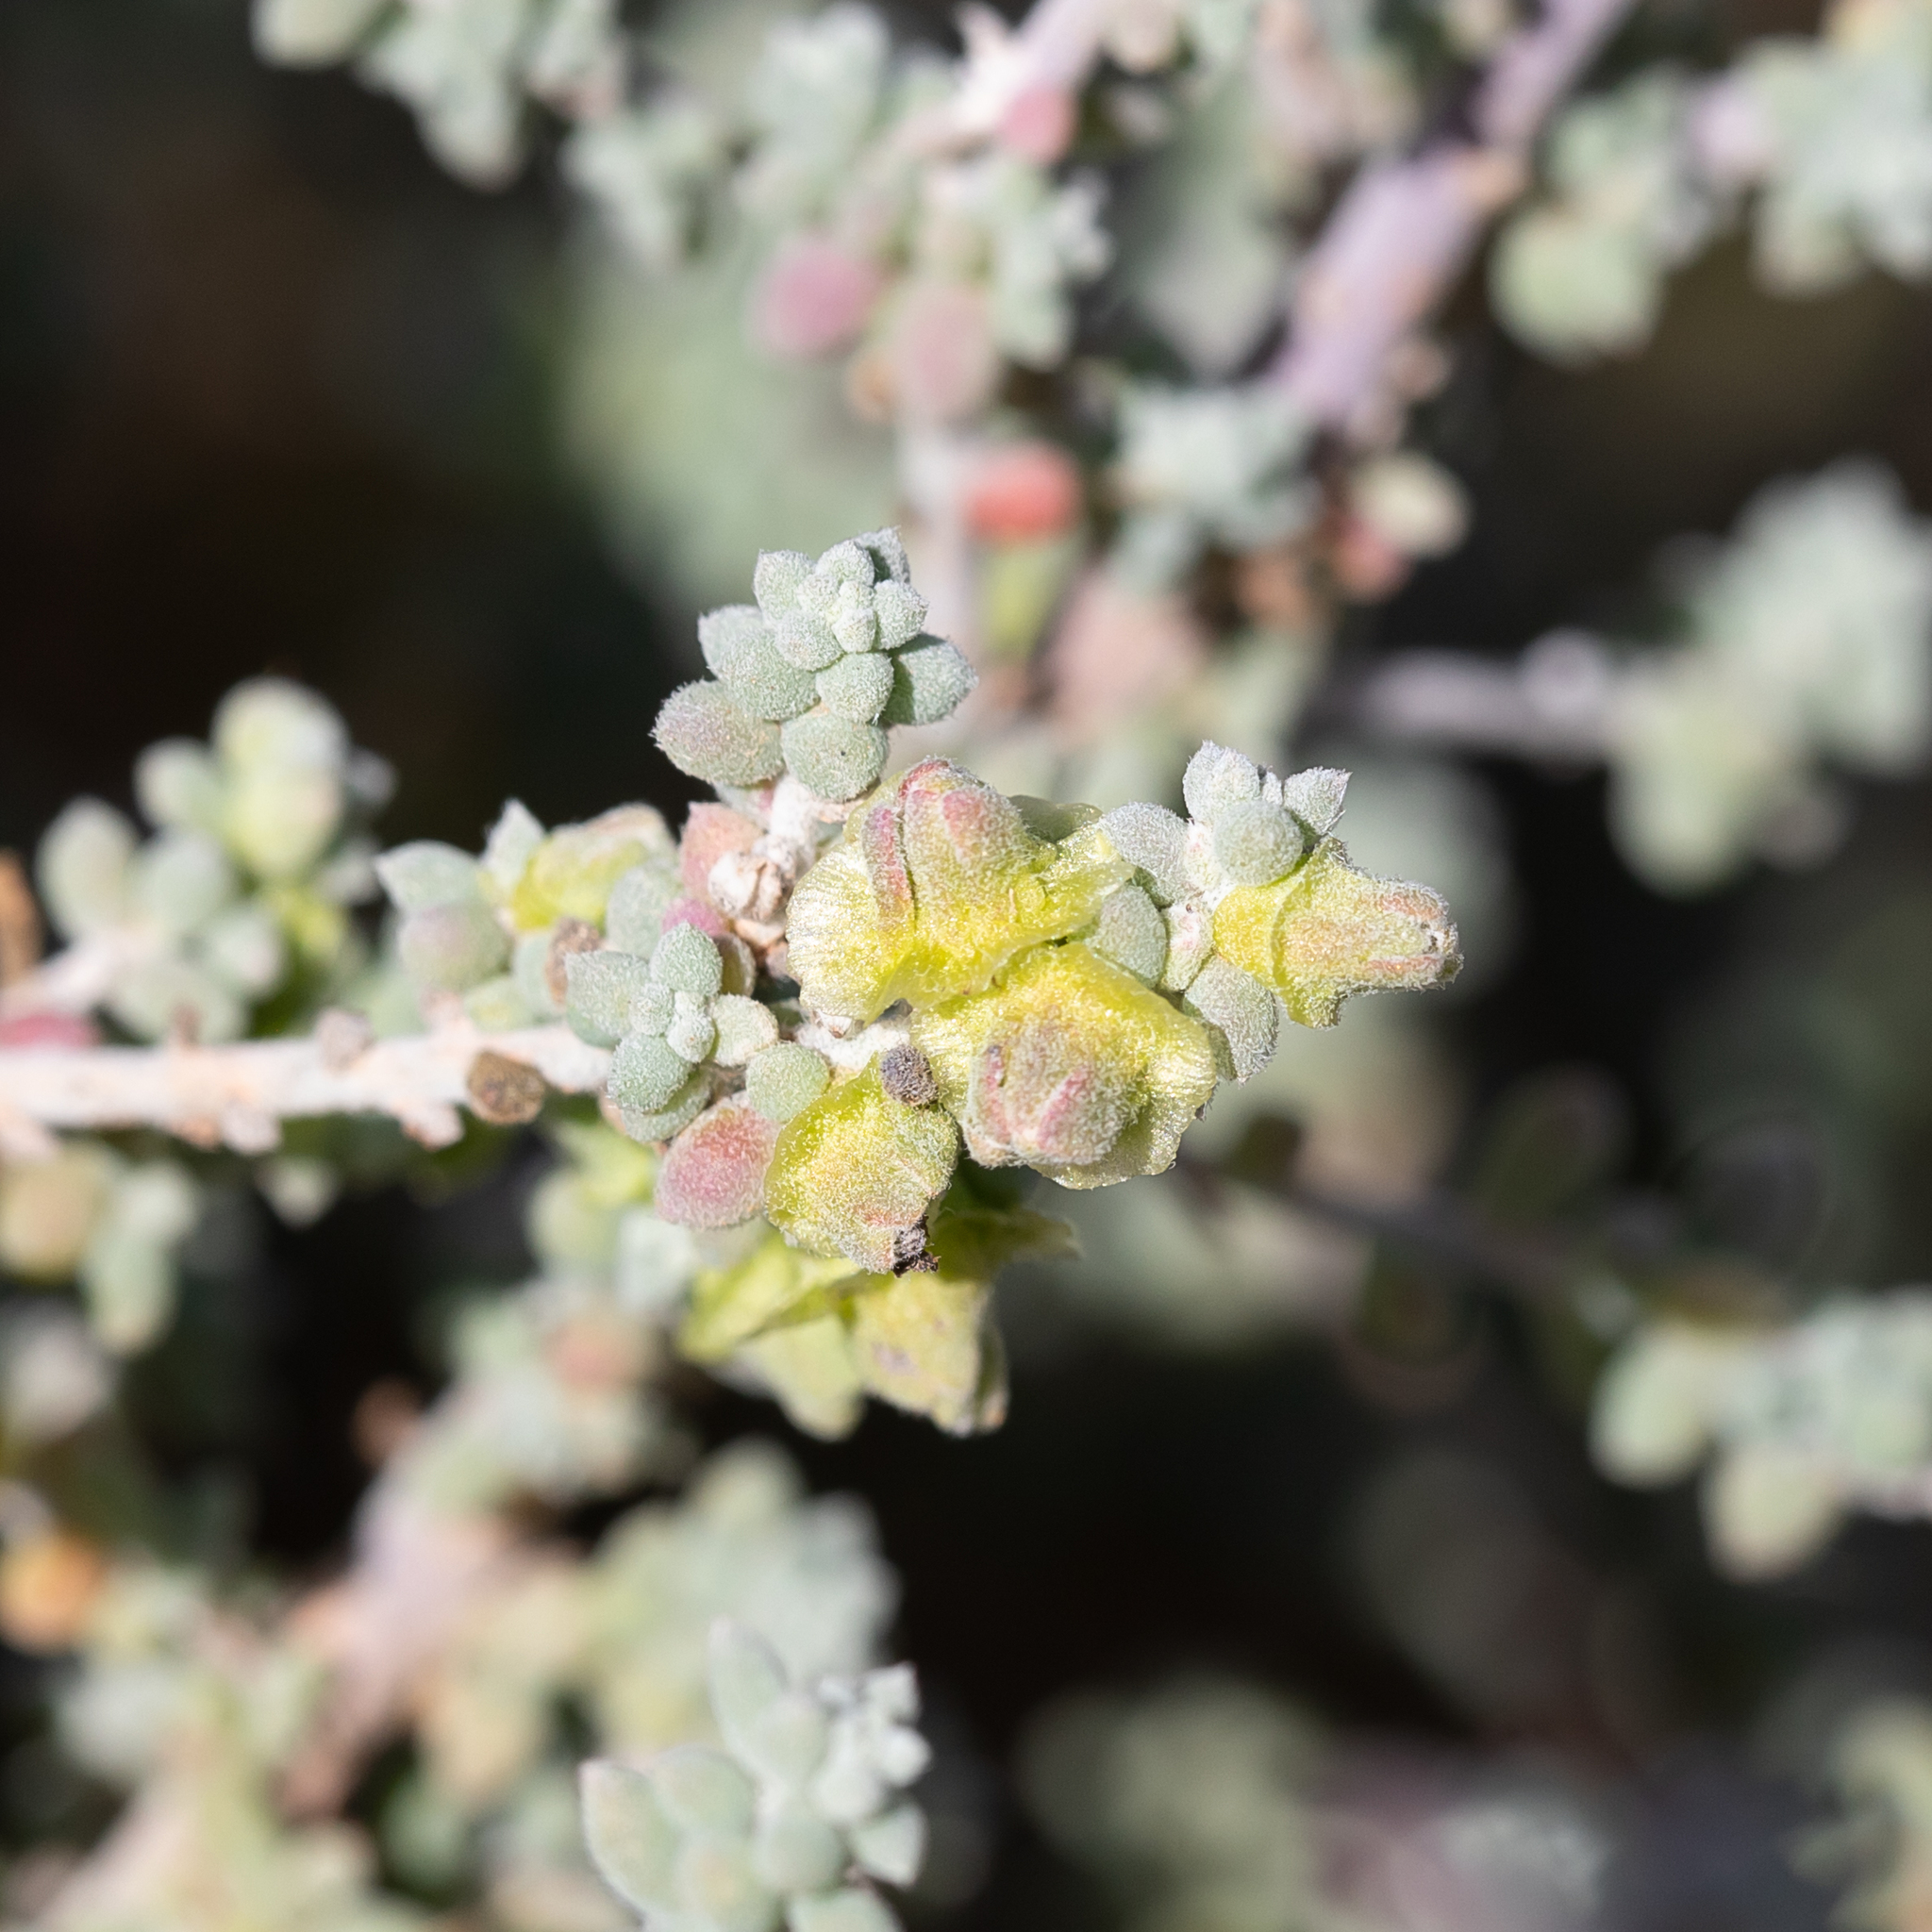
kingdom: Plantae
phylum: Tracheophyta
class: Magnoliopsida
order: Caryophyllales
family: Amaranthaceae
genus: Maireana
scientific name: Maireana pyramidata
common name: Sagobush
